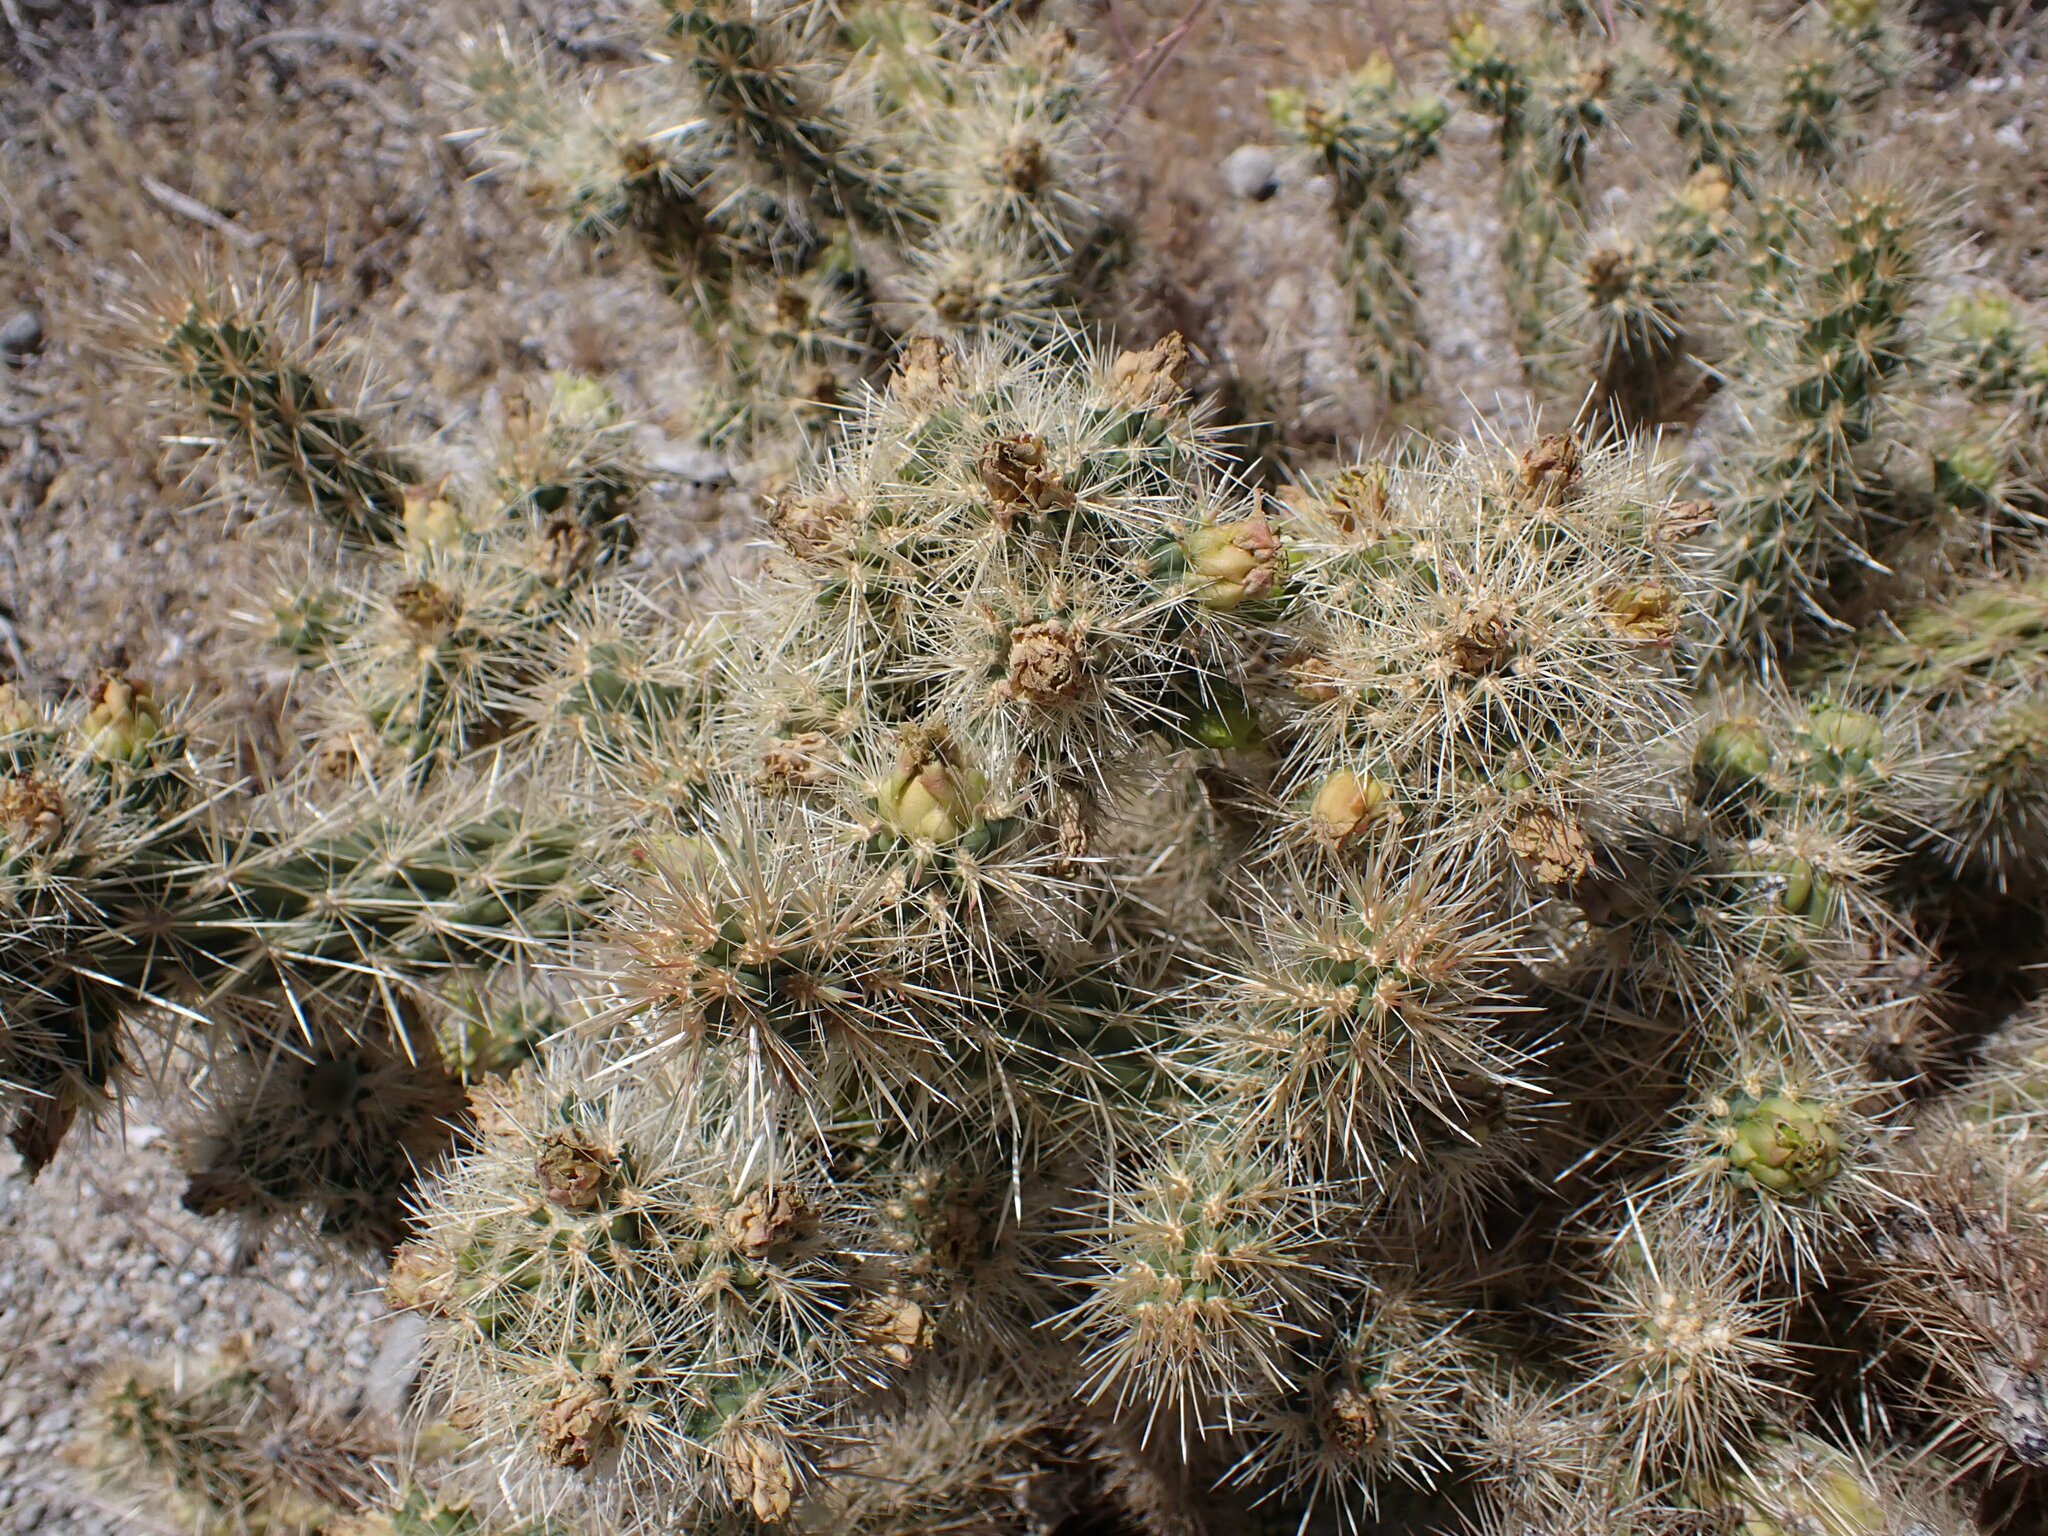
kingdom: Plantae
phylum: Tracheophyta
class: Magnoliopsida
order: Caryophyllales
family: Cactaceae
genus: Cylindropuntia
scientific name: Cylindropuntia ganderi
